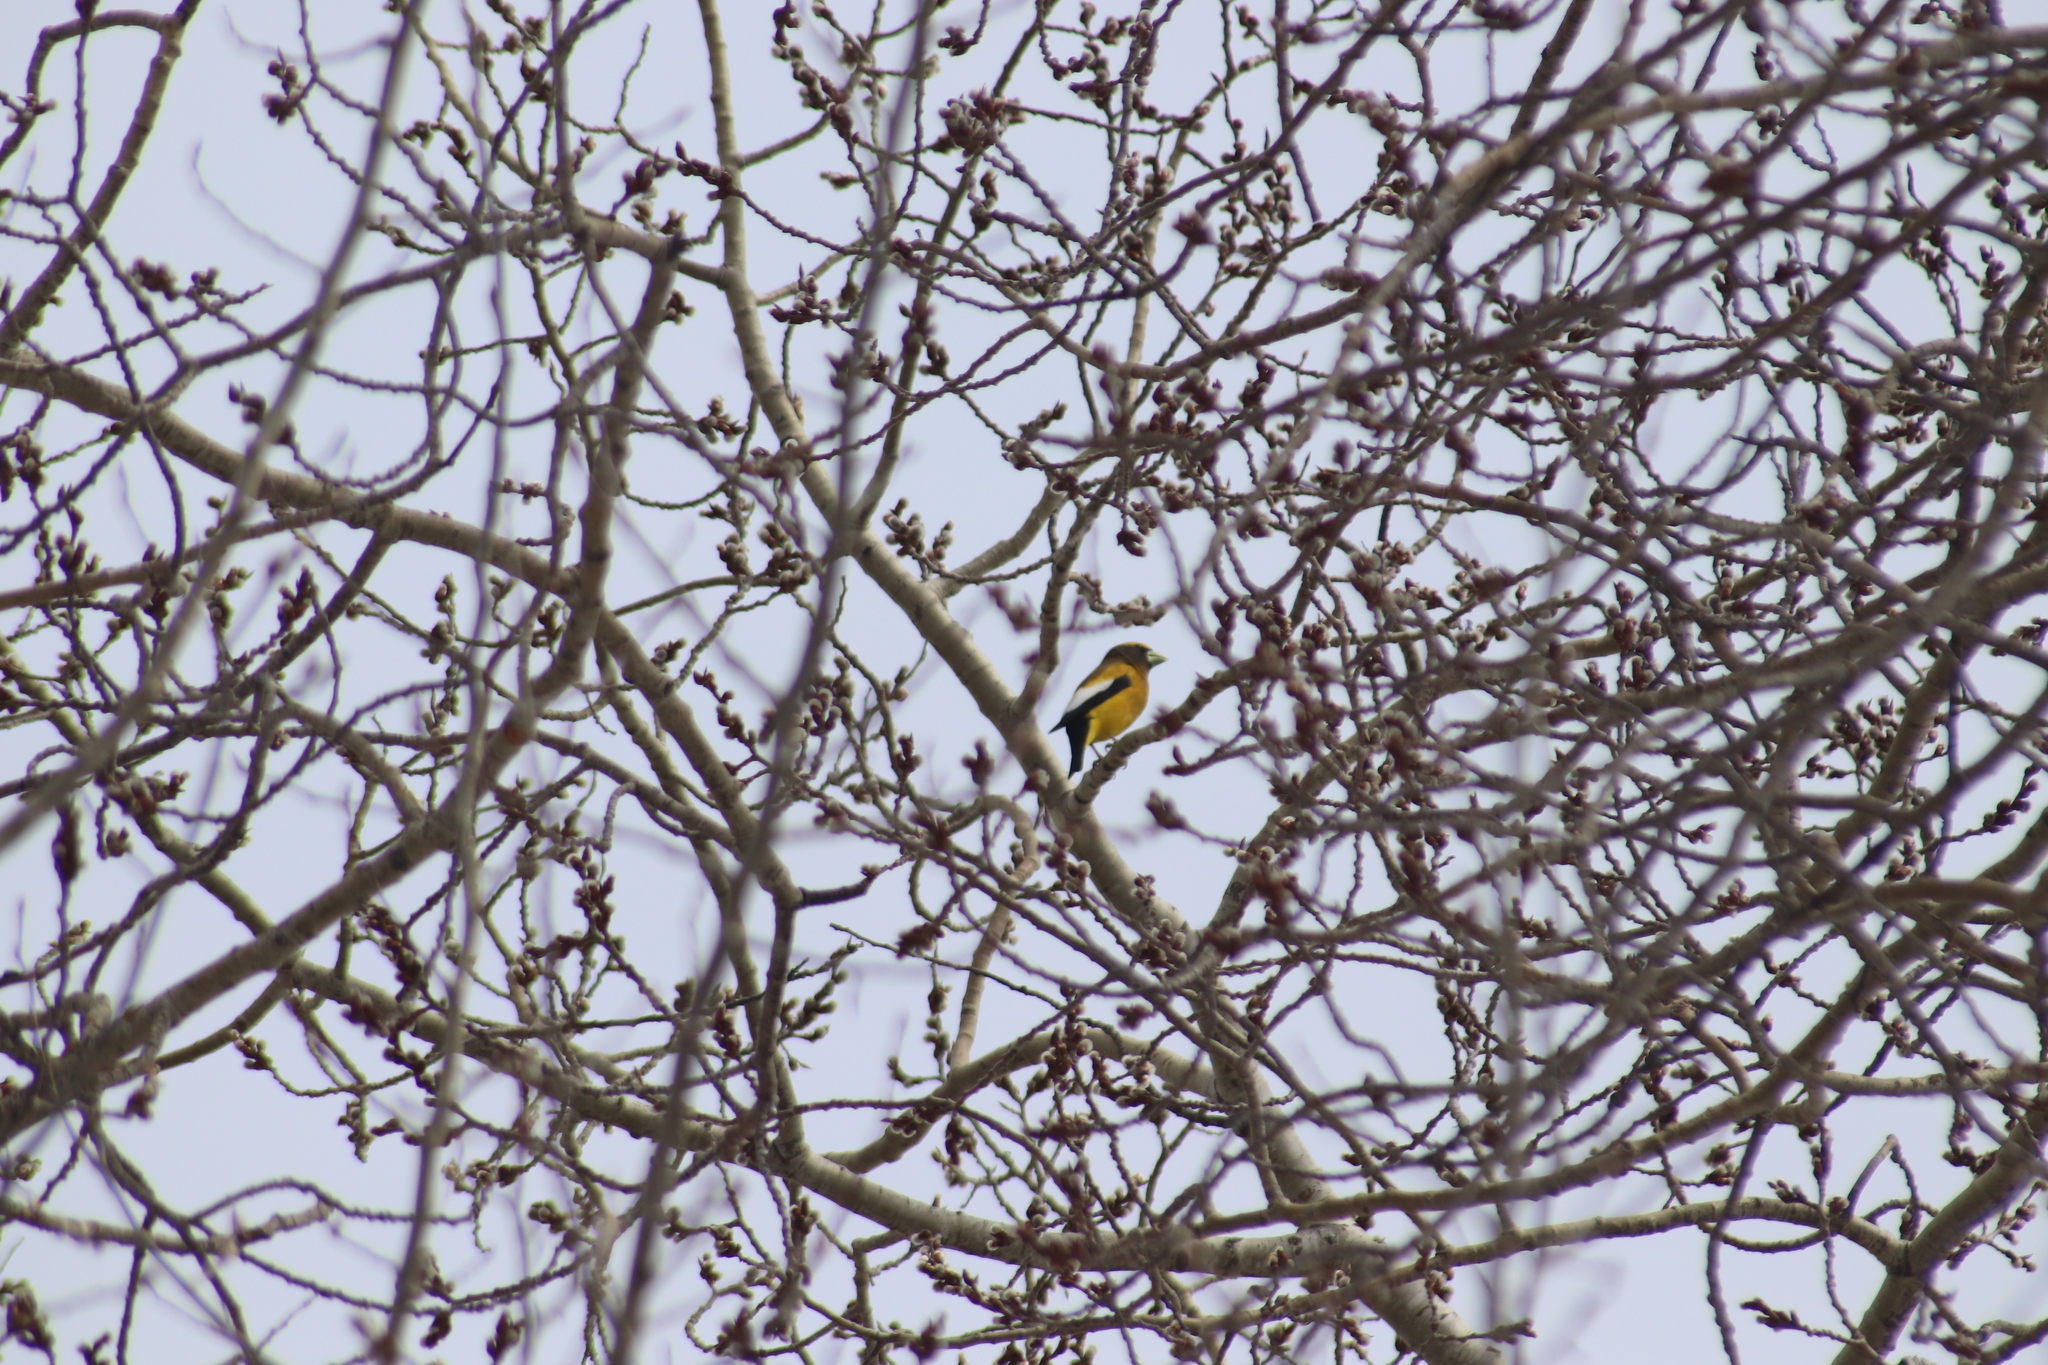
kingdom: Animalia
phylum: Chordata
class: Aves
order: Passeriformes
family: Fringillidae
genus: Hesperiphona
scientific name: Hesperiphona vespertina
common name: Evening grosbeak
